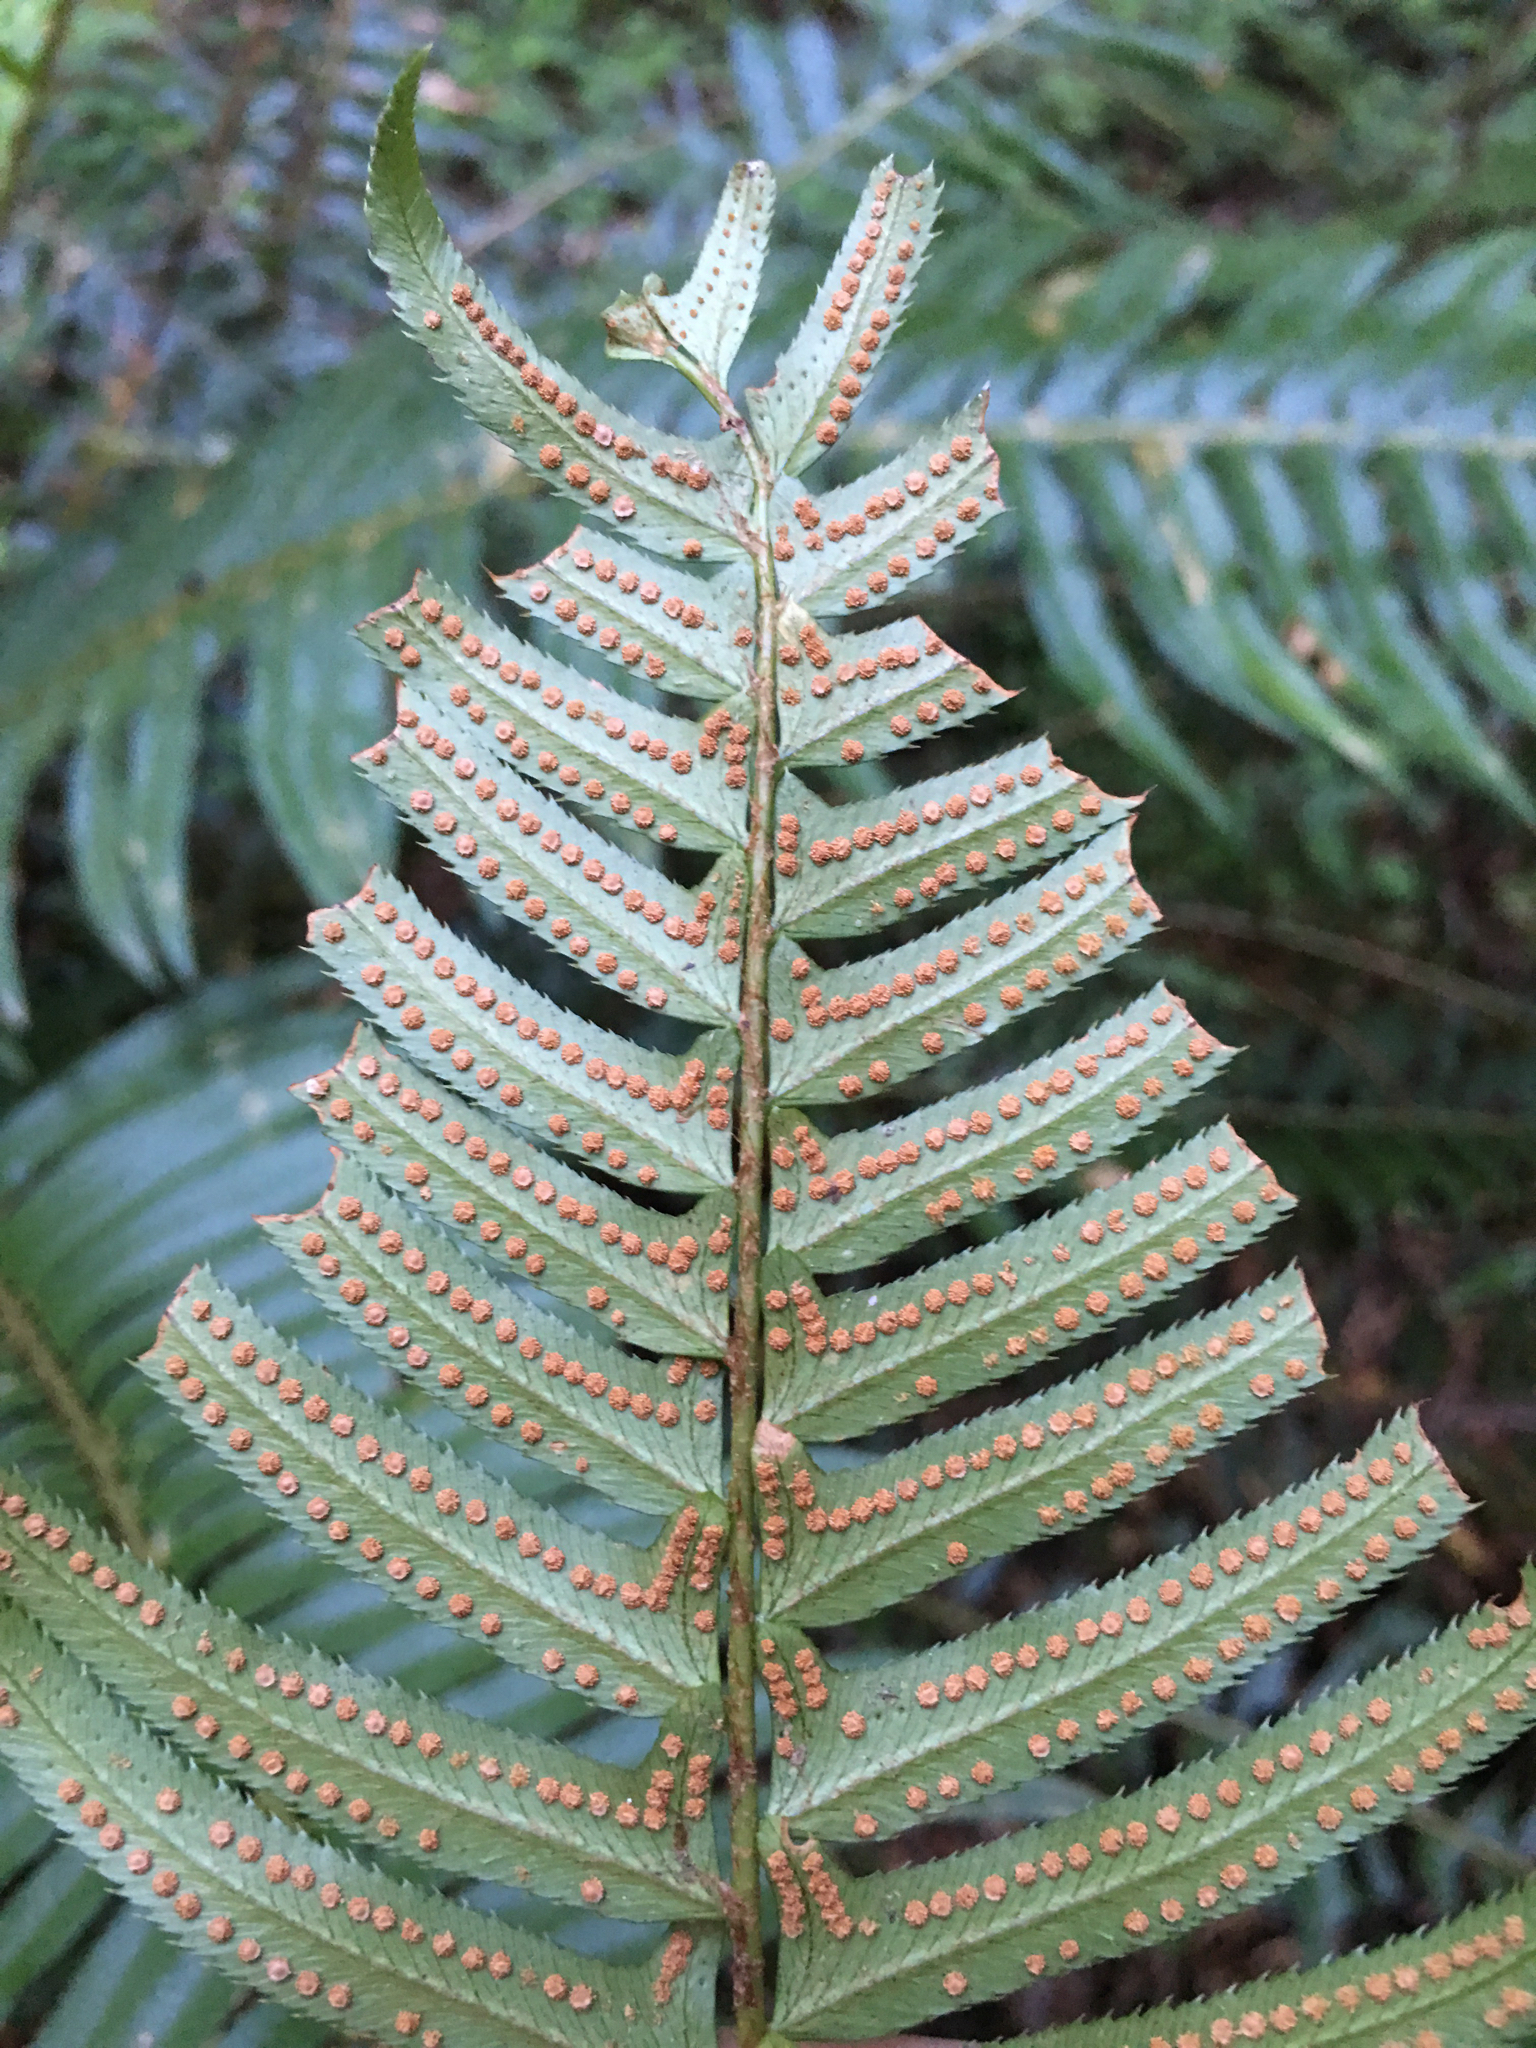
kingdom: Plantae
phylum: Tracheophyta
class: Polypodiopsida
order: Polypodiales
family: Dryopteridaceae
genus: Polystichum
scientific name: Polystichum munitum
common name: Western sword-fern
